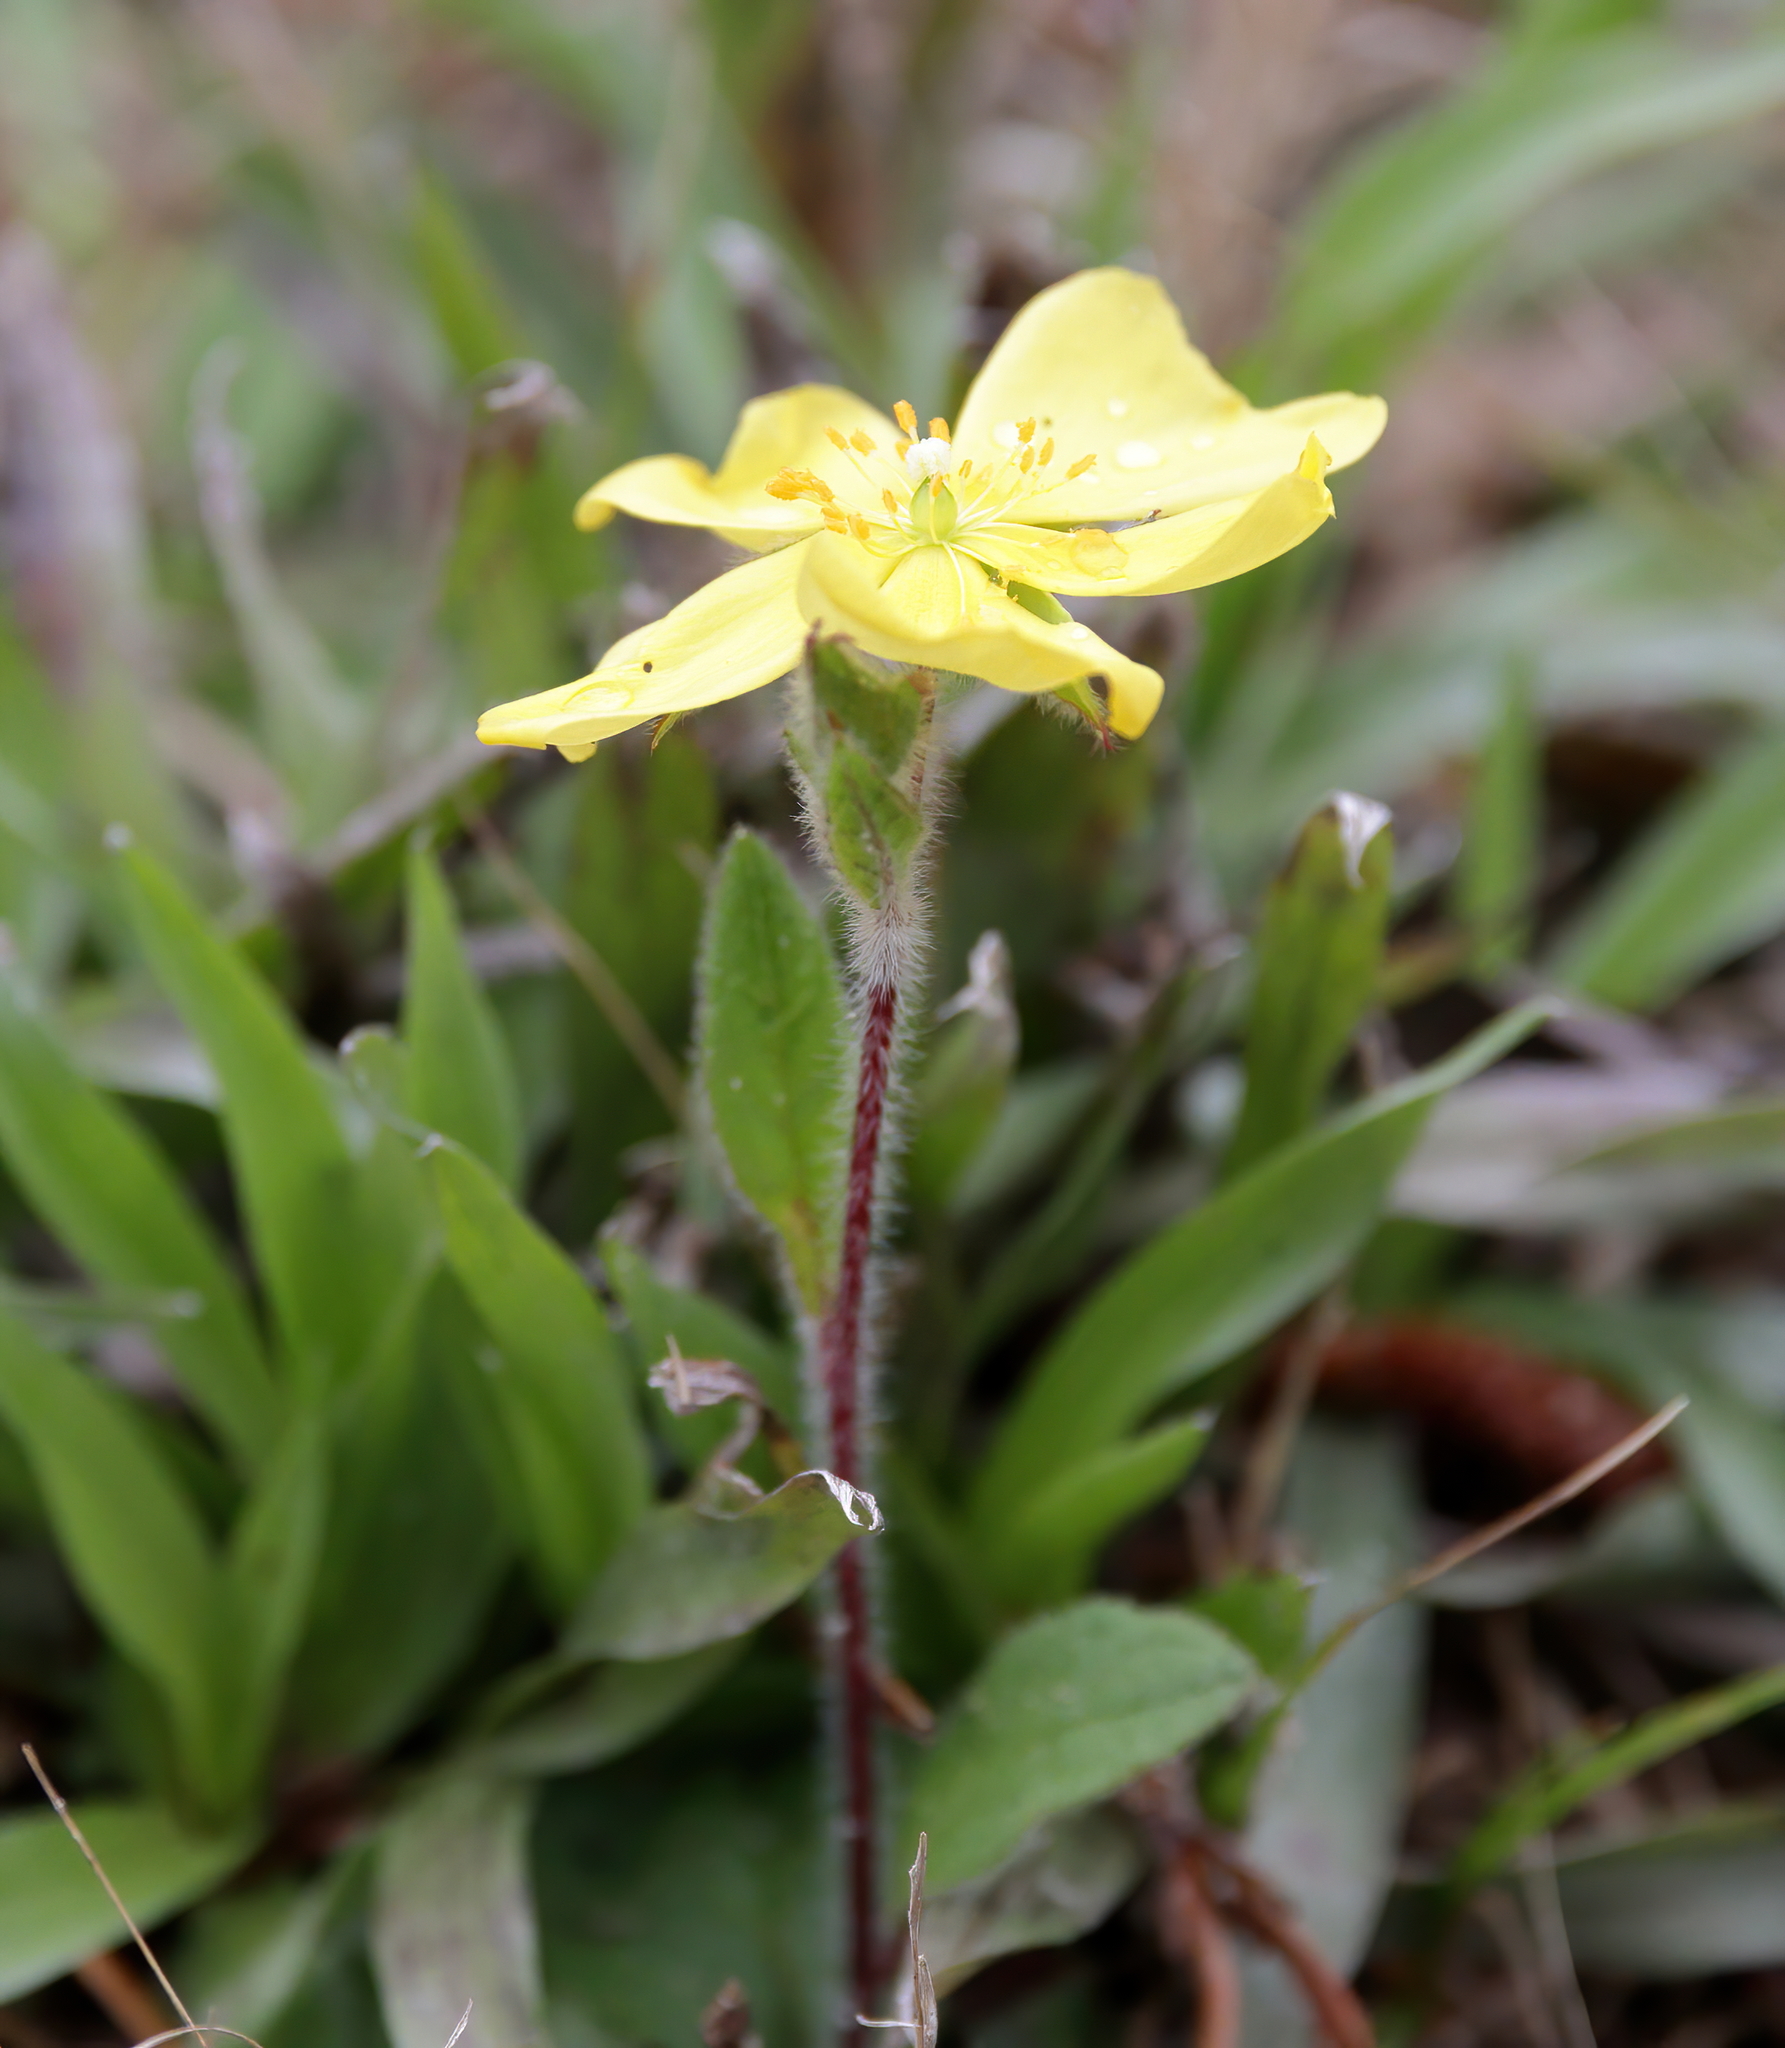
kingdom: Plantae
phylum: Tracheophyta
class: Magnoliopsida
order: Malvales
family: Cistaceae
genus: Crocanthemum
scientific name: Crocanthemum carolinianum
